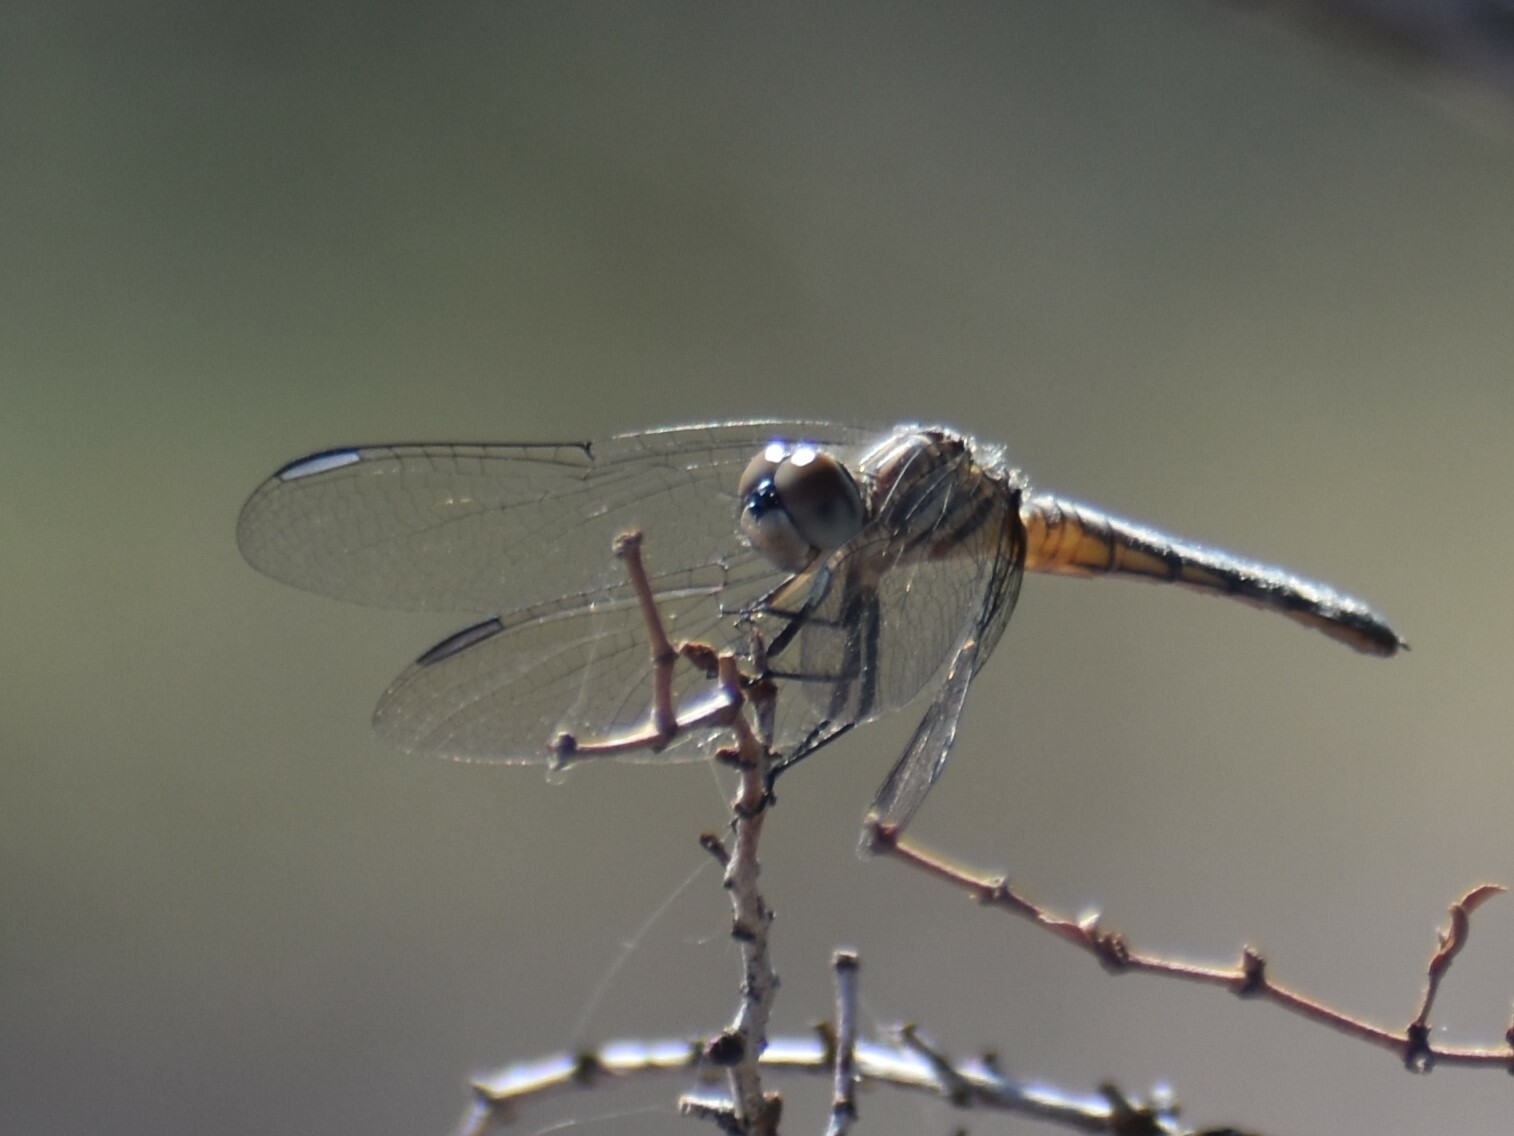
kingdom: Animalia
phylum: Arthropoda
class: Insecta
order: Odonata
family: Libellulidae
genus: Pachydiplax
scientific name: Pachydiplax longipennis
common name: Blue dasher
